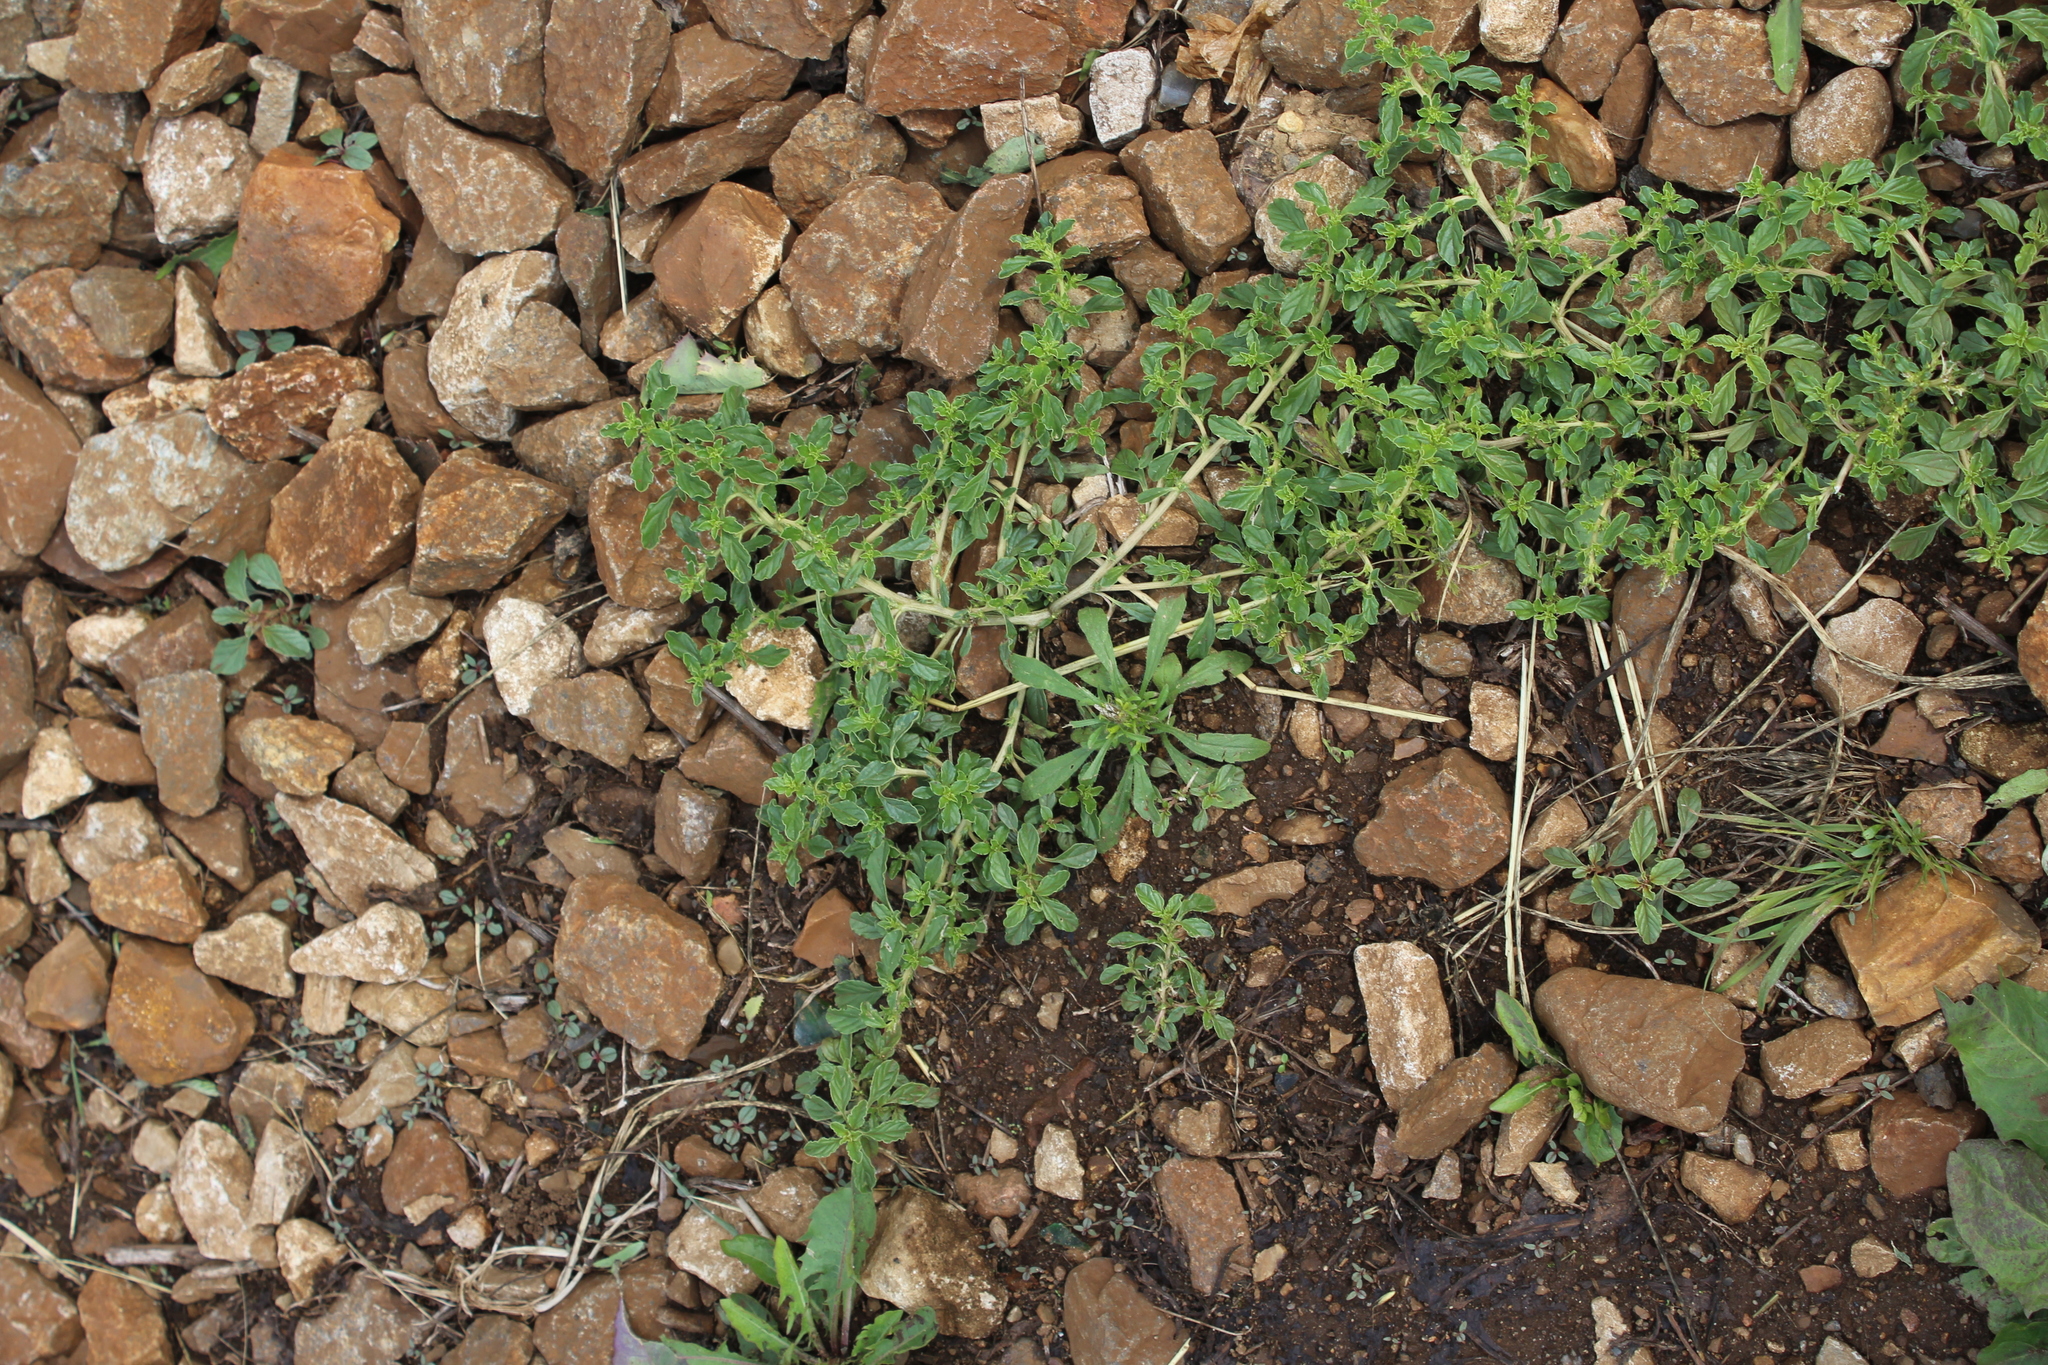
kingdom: Plantae
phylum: Tracheophyta
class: Magnoliopsida
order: Caryophyllales
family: Amaranthaceae
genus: Amaranthus
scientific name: Amaranthus albus
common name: White pigweed
